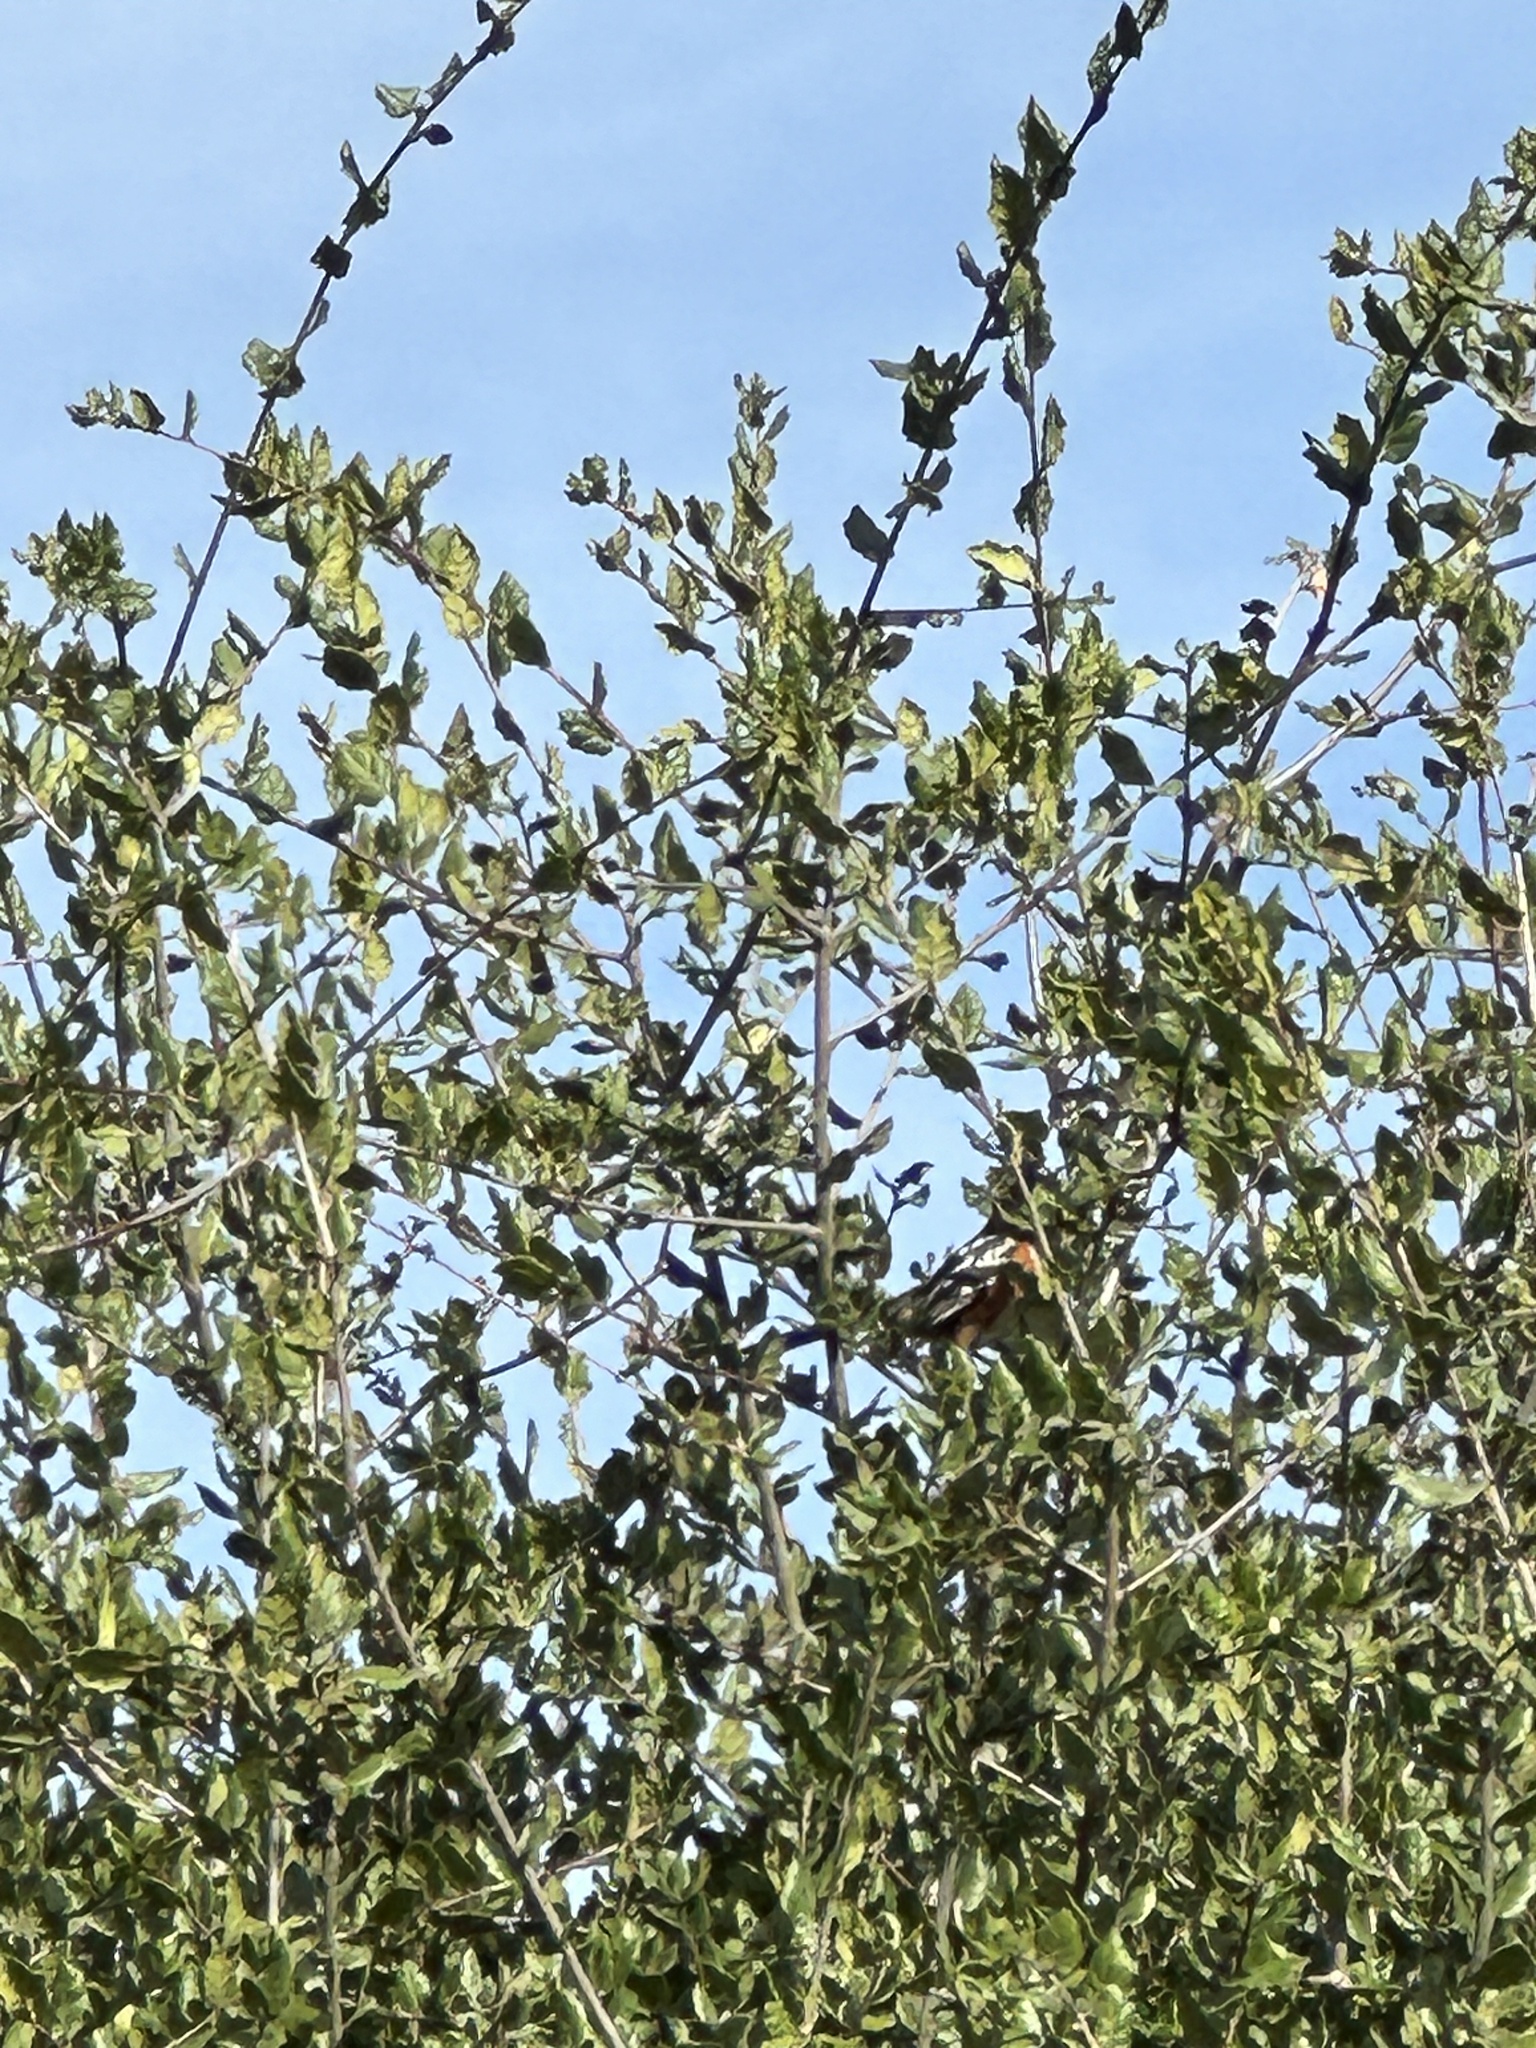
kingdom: Animalia
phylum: Chordata
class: Aves
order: Passeriformes
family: Passerellidae
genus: Pipilo
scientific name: Pipilo maculatus
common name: Spotted towhee
